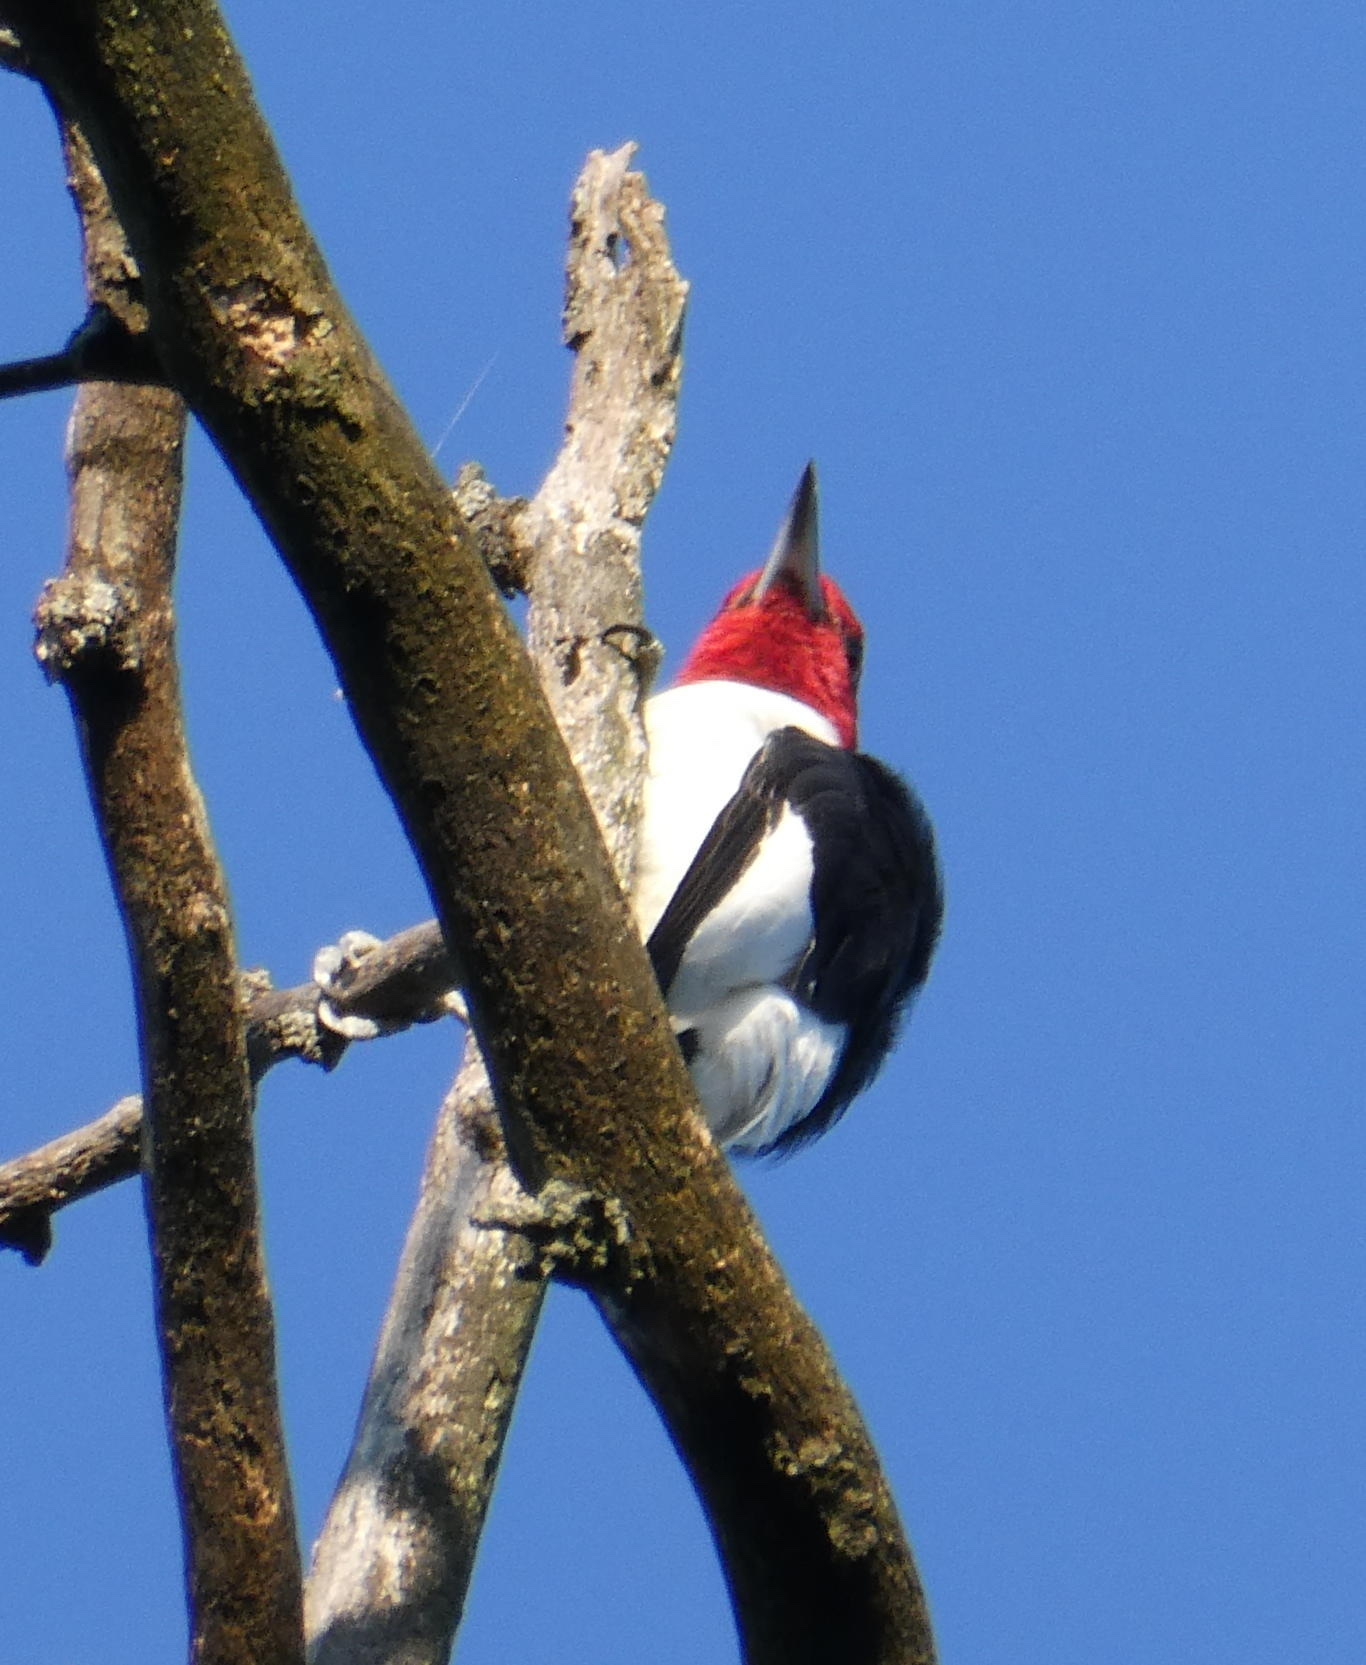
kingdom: Animalia
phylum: Chordata
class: Aves
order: Piciformes
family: Picidae
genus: Melanerpes
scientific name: Melanerpes erythrocephalus
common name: Red-headed woodpecker
